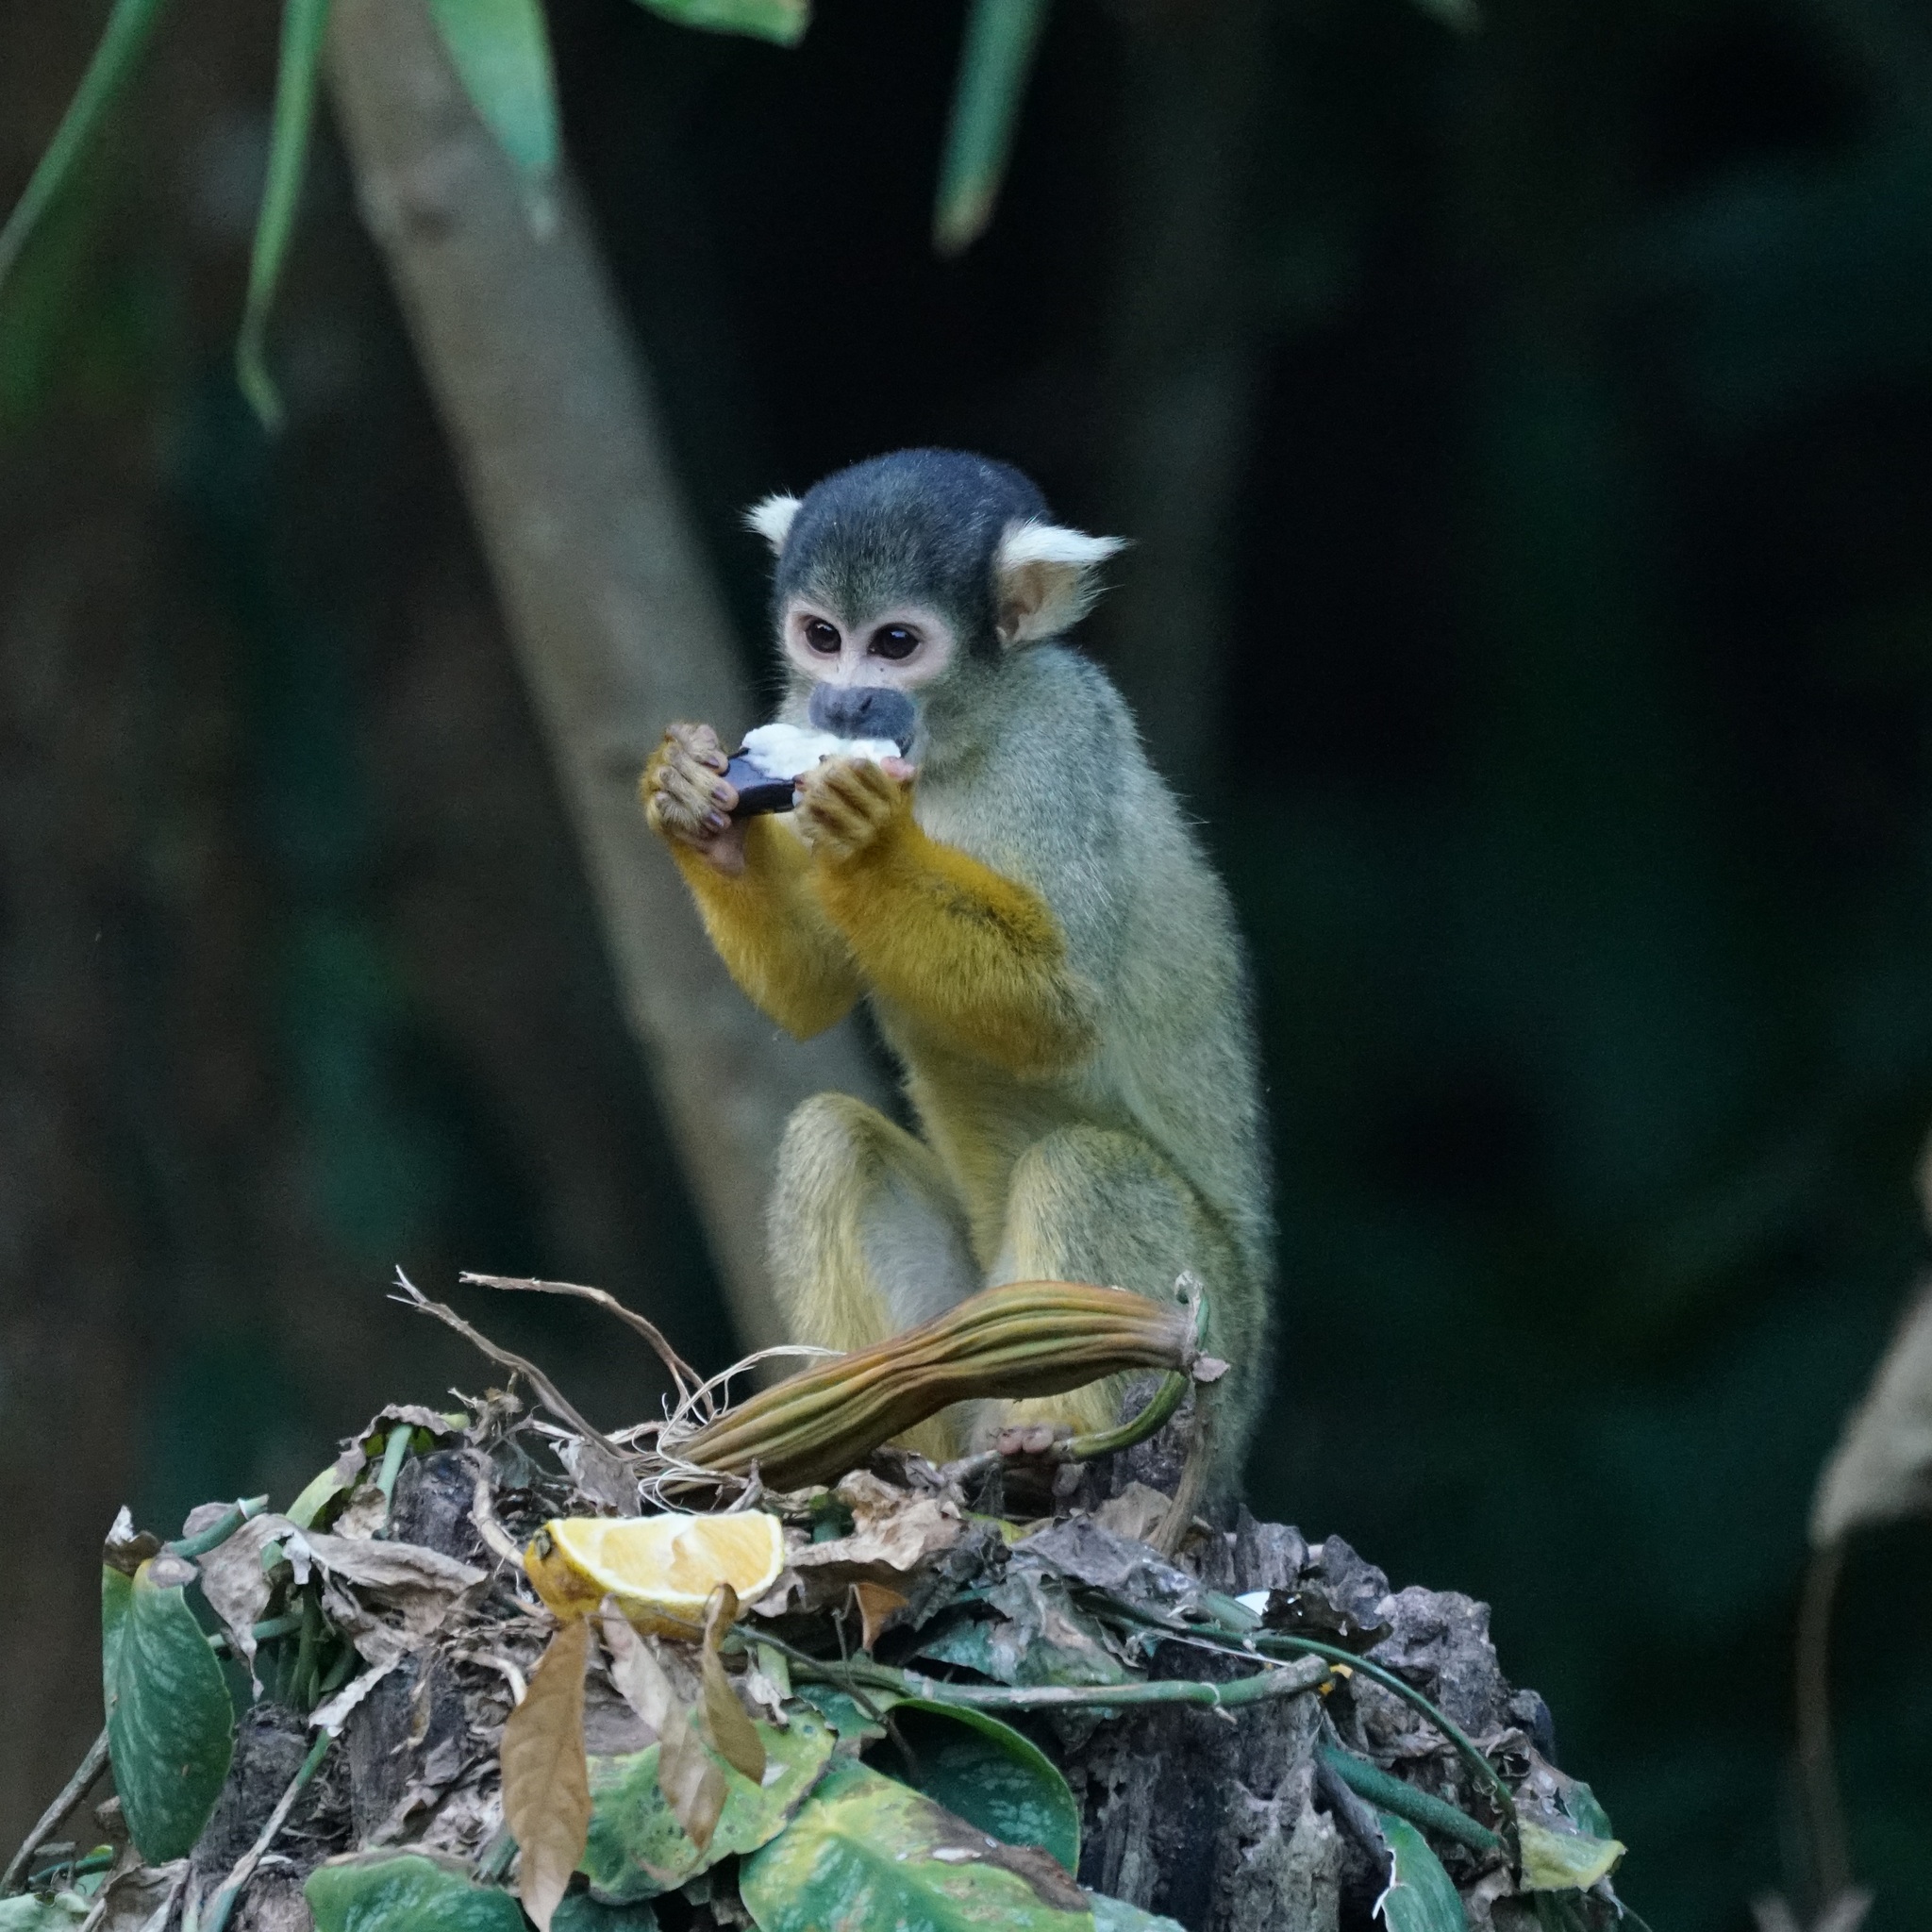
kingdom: Animalia
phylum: Chordata
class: Mammalia
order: Primates
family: Cebidae
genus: Saimiri
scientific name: Saimiri boliviensis
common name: Black-capped squirrel monkey
